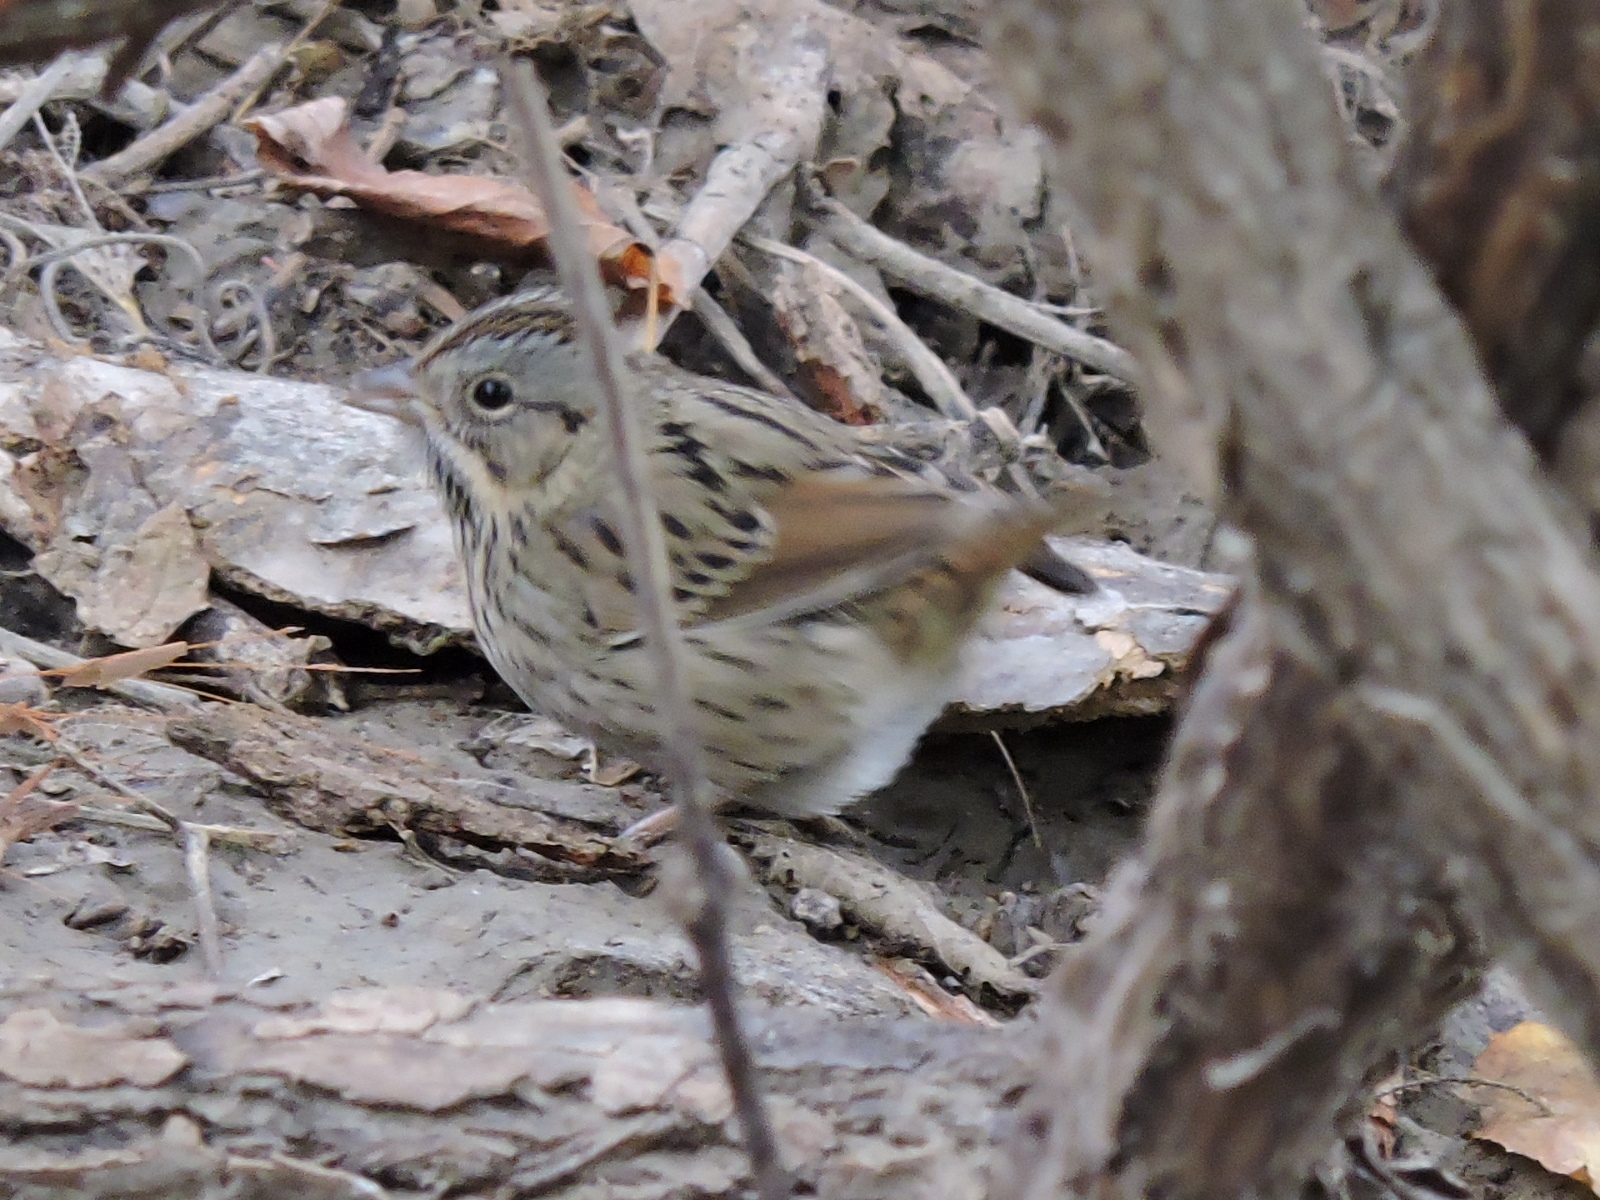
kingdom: Animalia
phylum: Chordata
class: Aves
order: Passeriformes
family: Passerellidae
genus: Melospiza
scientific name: Melospiza lincolnii
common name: Lincoln's sparrow
